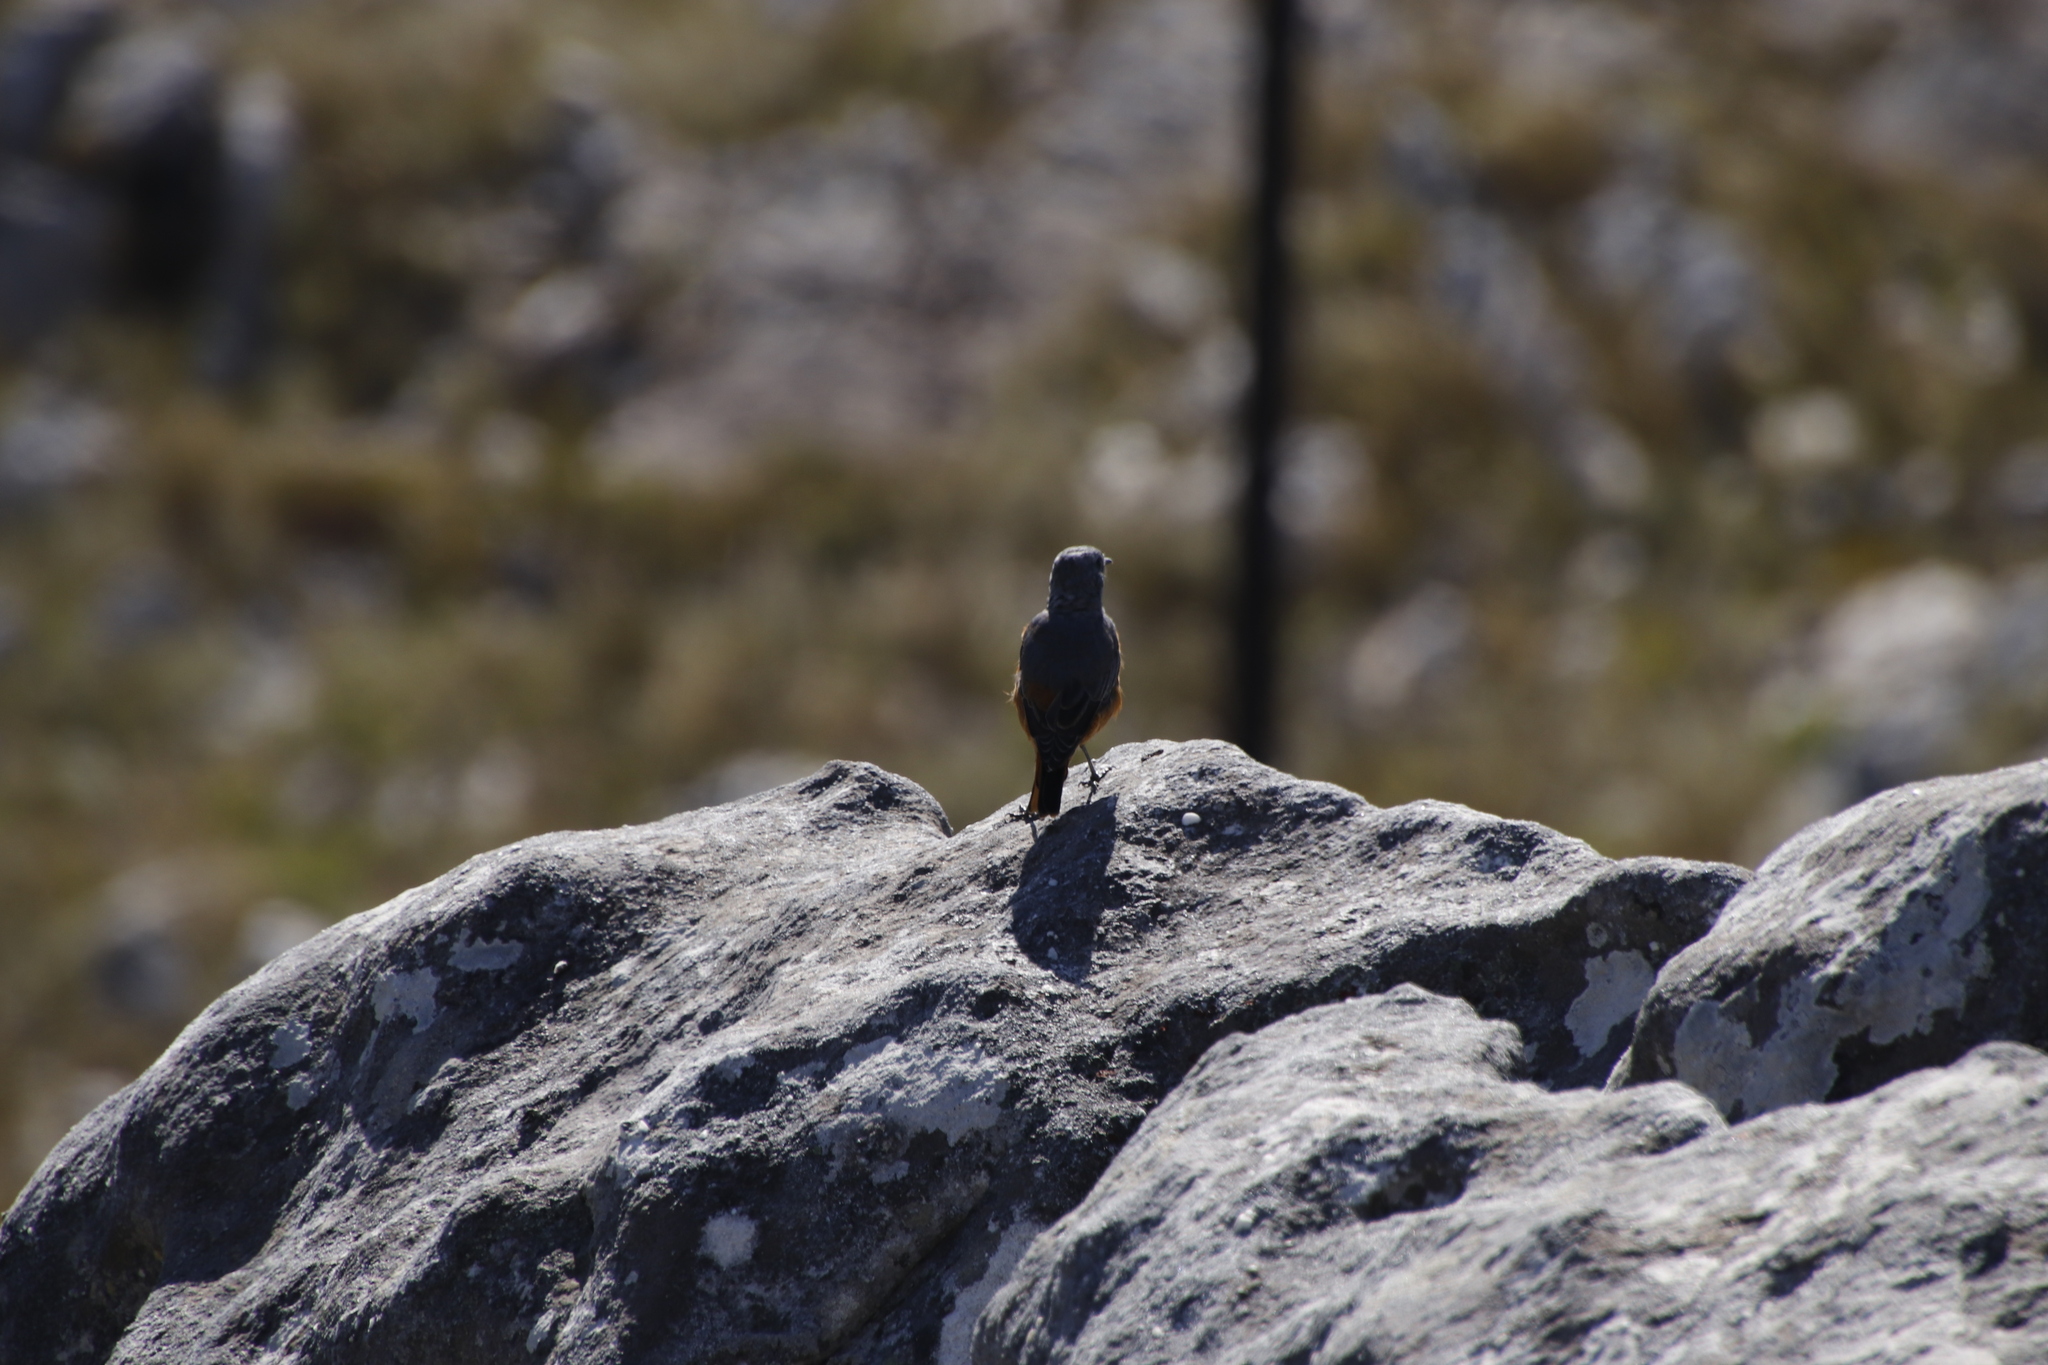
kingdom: Animalia
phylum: Chordata
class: Aves
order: Passeriformes
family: Muscicapidae
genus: Monticola
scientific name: Monticola explorator
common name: Sentinel rock thrush
